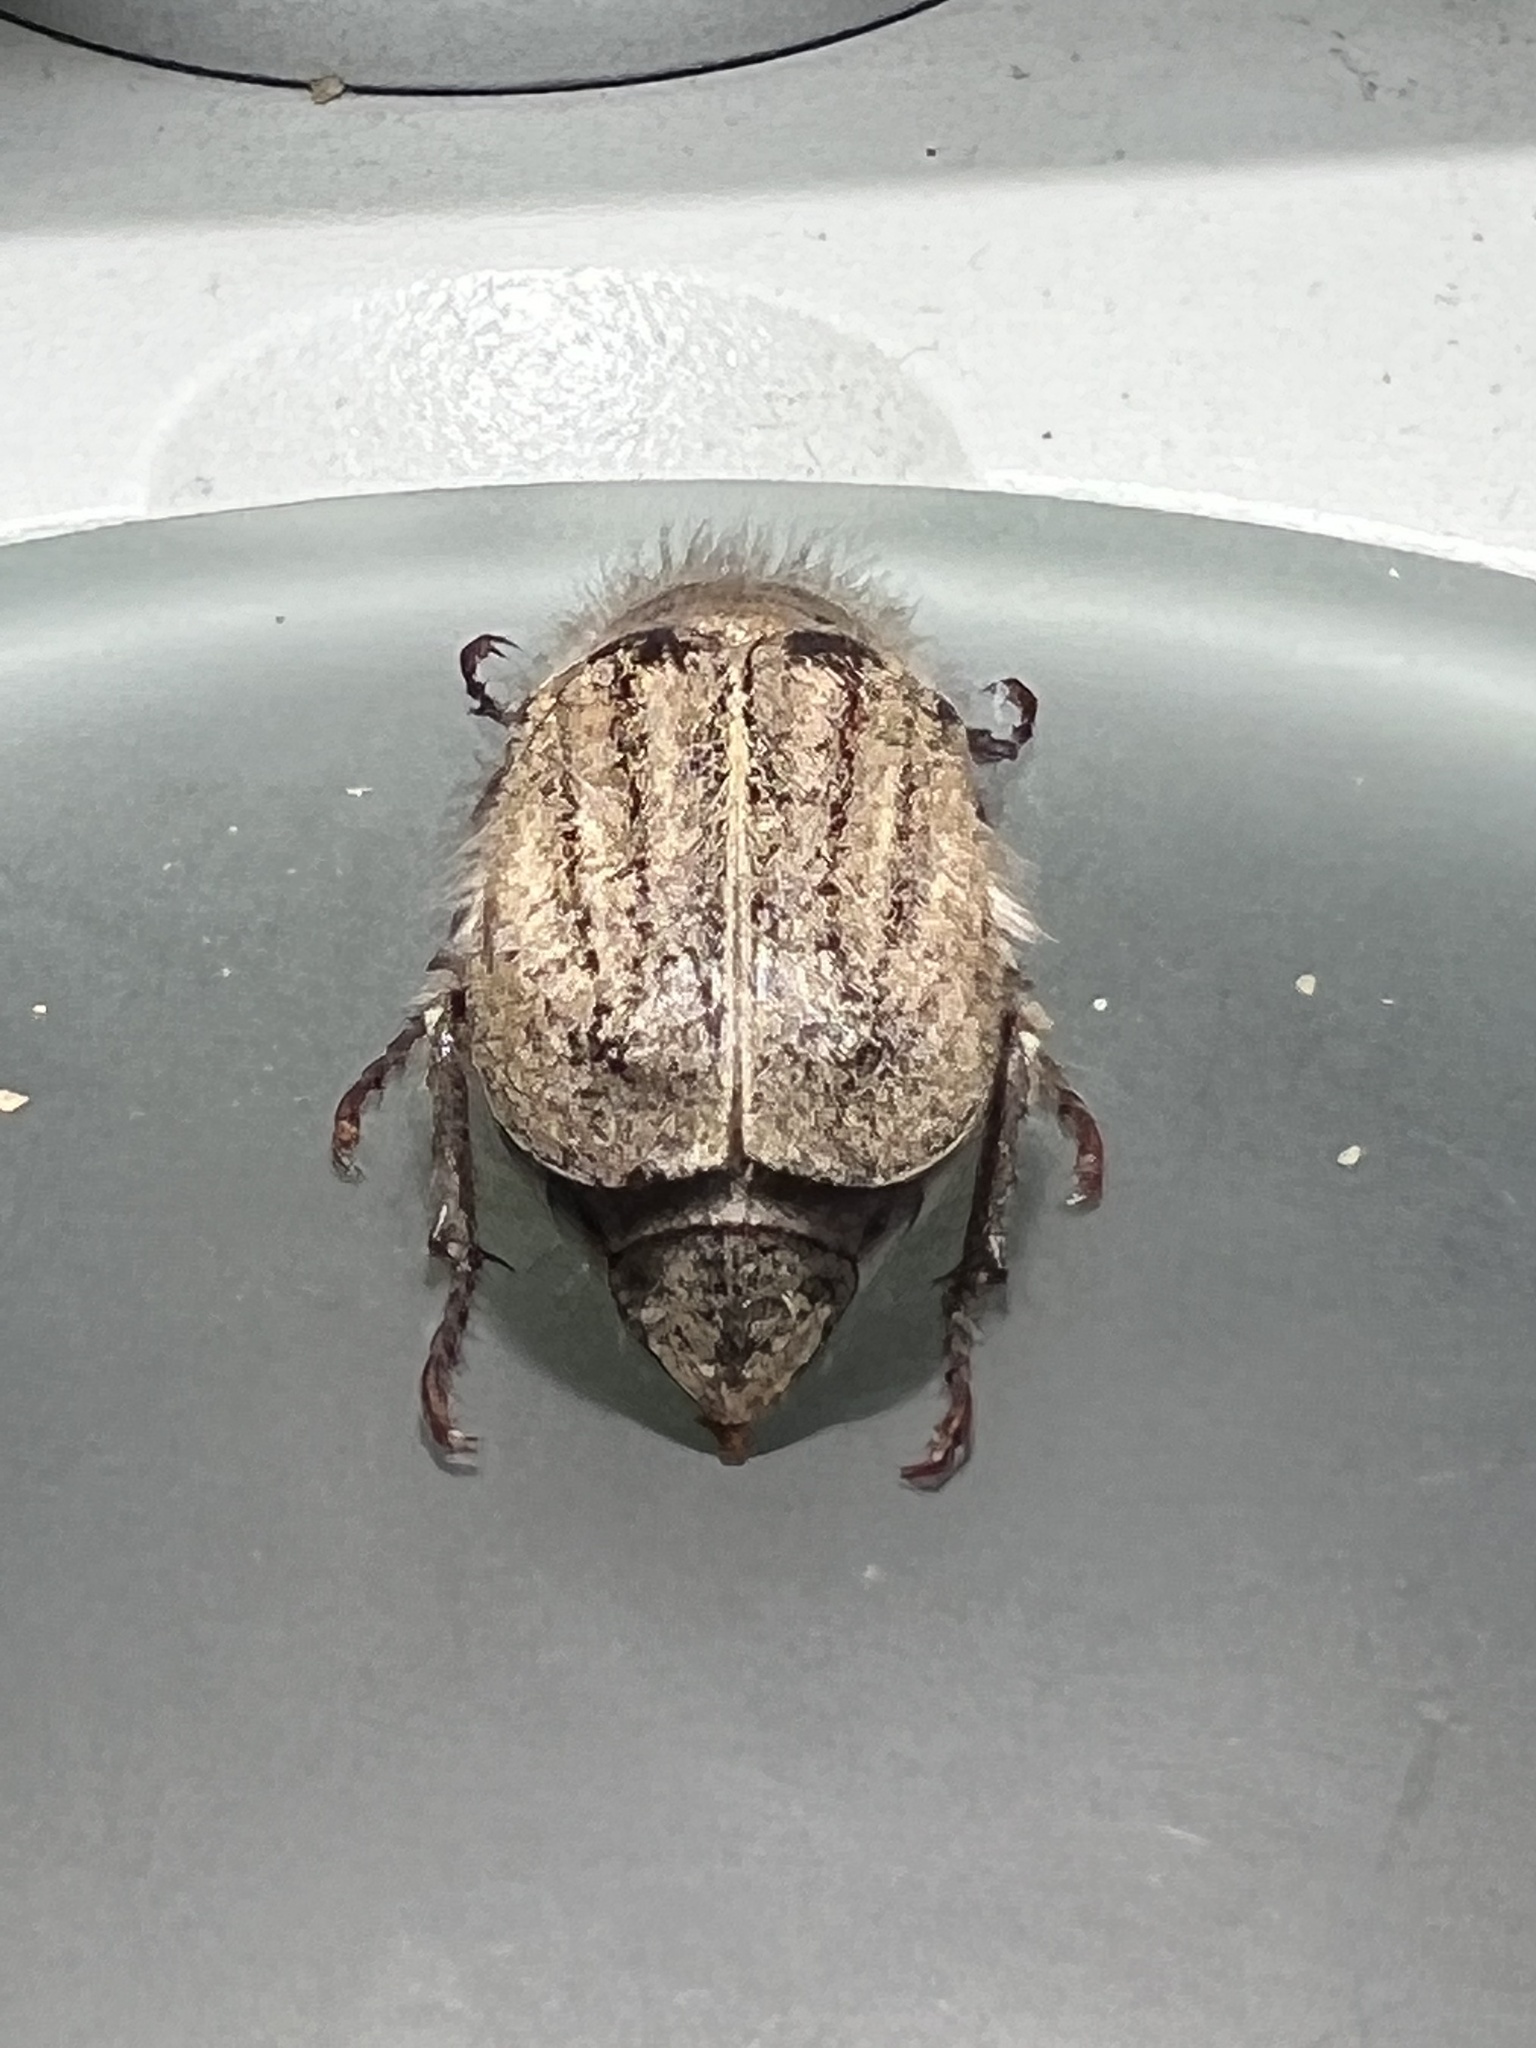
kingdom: Animalia
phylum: Arthropoda
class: Insecta
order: Coleoptera
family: Scarabaeidae
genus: Amblonoxia
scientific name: Amblonoxia harfordi
